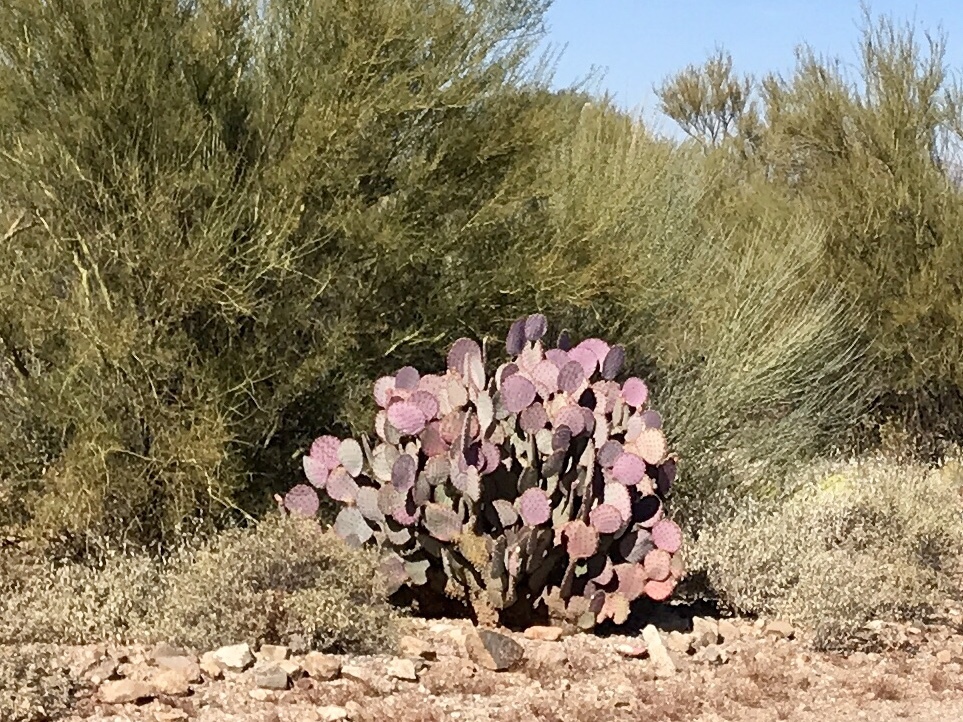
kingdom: Plantae
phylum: Tracheophyta
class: Magnoliopsida
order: Caryophyllales
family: Cactaceae
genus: Opuntia
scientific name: Opuntia gosseliniana
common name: Violet prickly-pear
